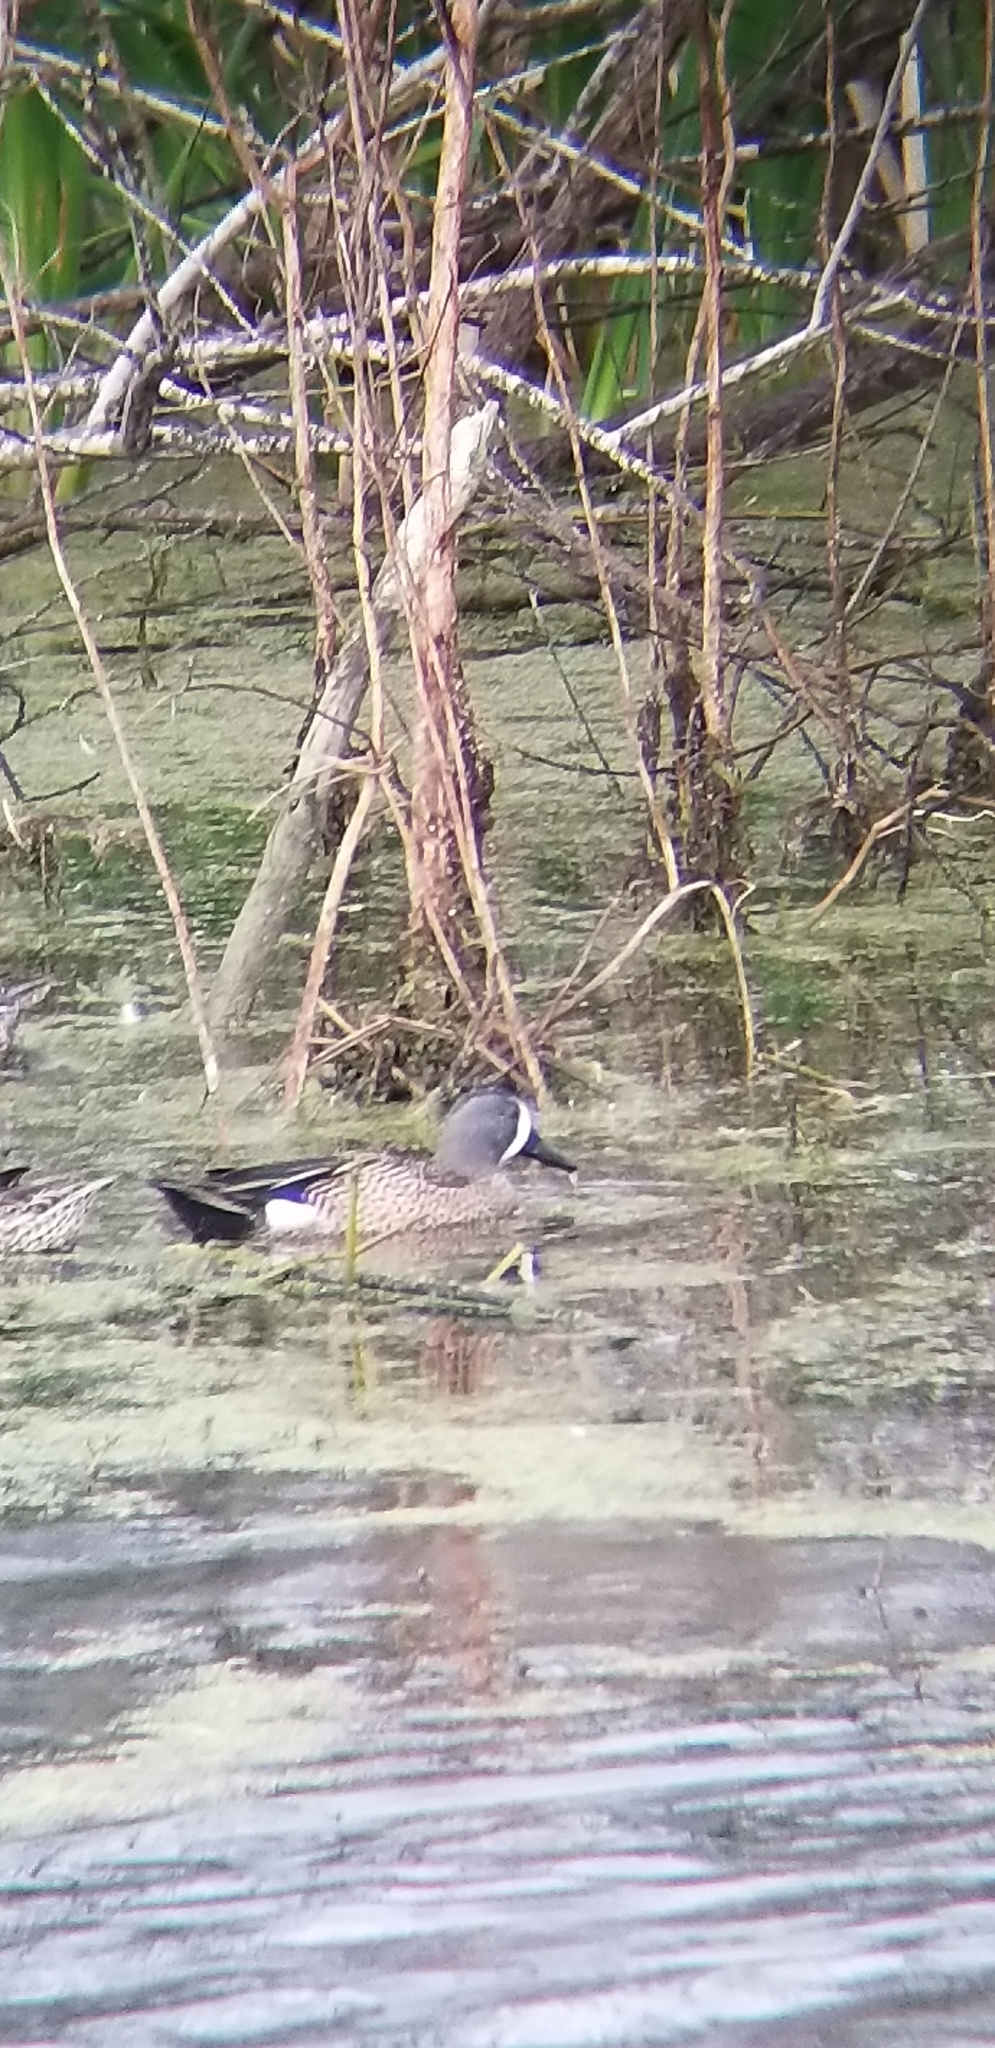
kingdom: Animalia
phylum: Chordata
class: Aves
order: Anseriformes
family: Anatidae
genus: Spatula
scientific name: Spatula discors
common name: Blue-winged teal
